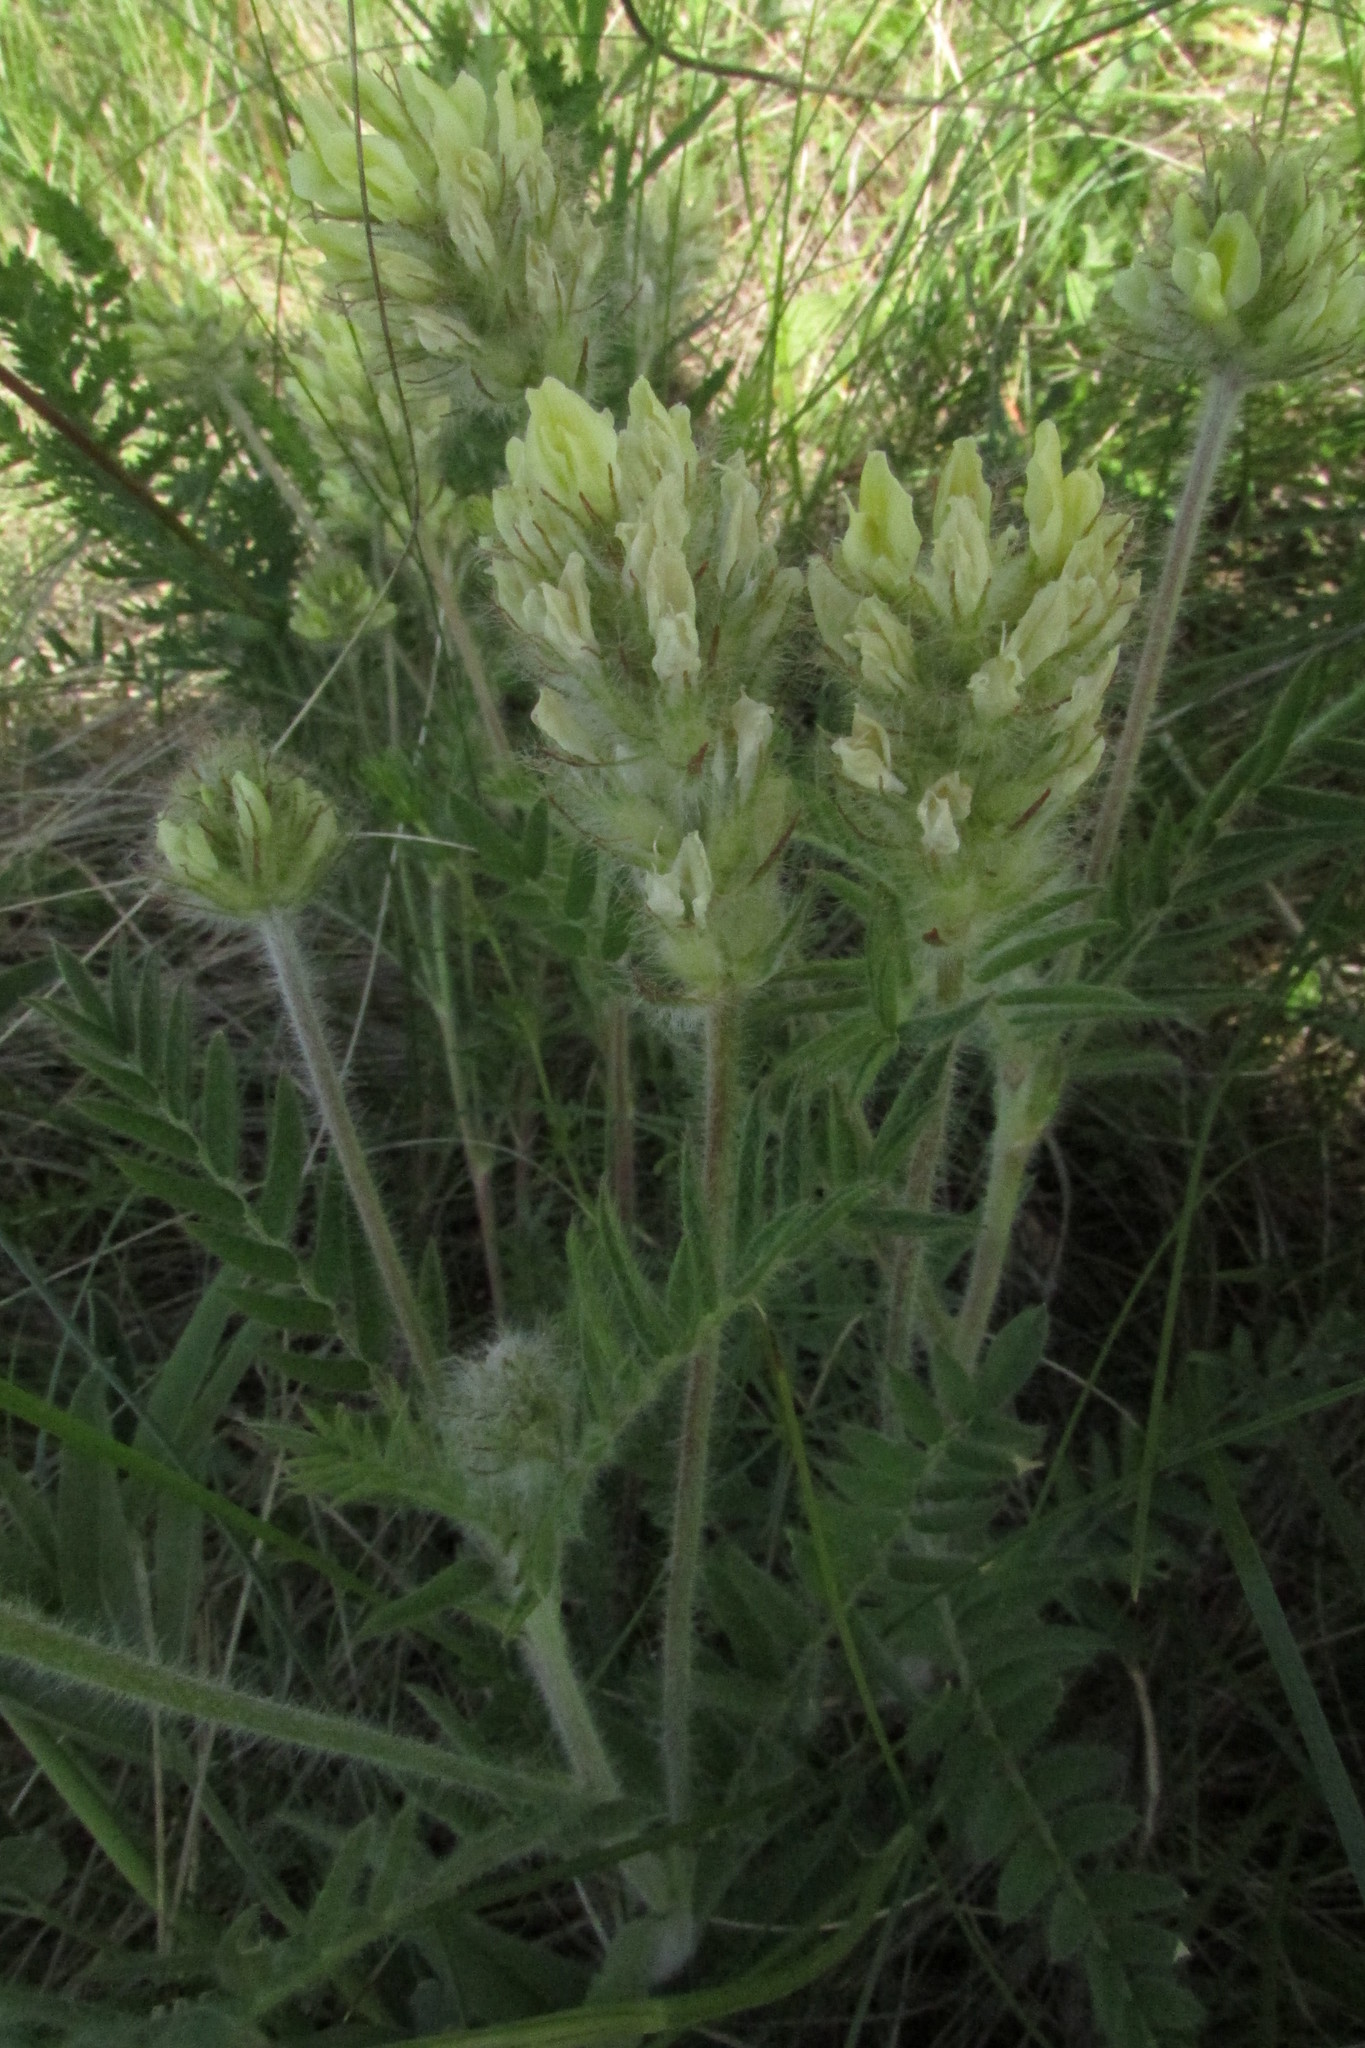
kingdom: Plantae
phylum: Tracheophyta
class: Magnoliopsida
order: Fabales
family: Fabaceae
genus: Oxytropis
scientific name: Oxytropis pilosa
